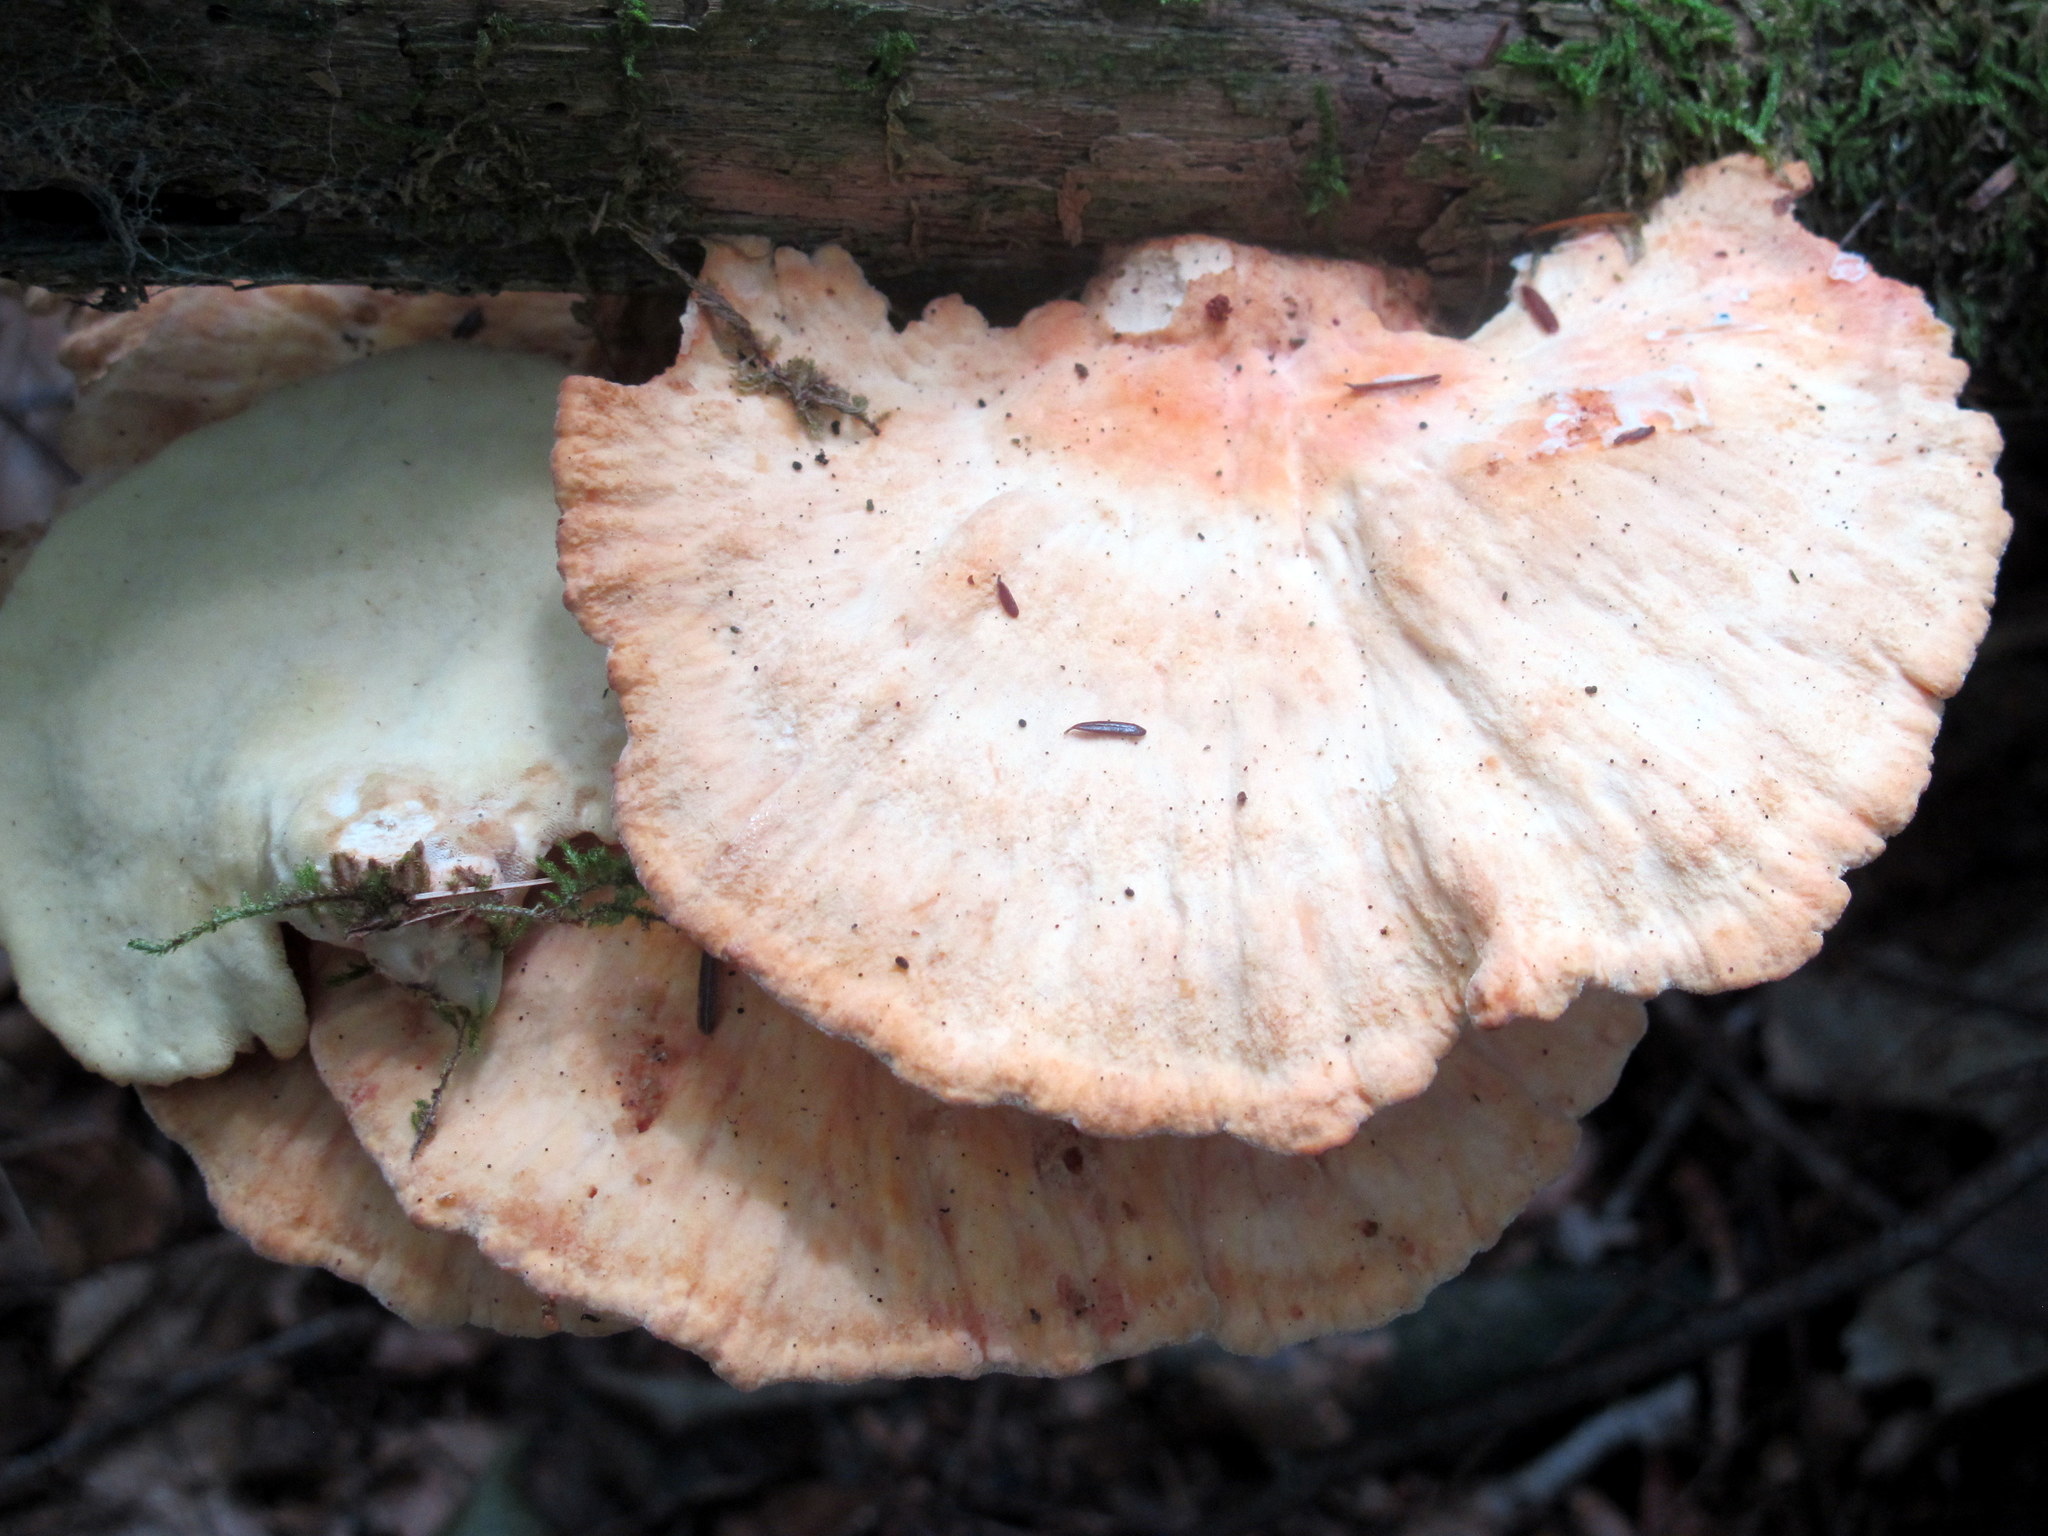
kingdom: Fungi
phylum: Basidiomycota
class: Agaricomycetes
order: Polyporales
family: Laetiporaceae
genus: Laetiporus
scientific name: Laetiporus huroniensis
